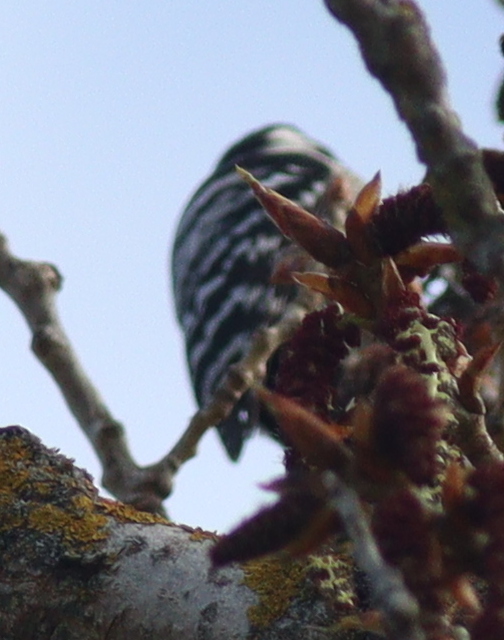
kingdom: Animalia
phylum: Chordata
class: Aves
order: Piciformes
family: Picidae
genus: Dryobates
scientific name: Dryobates minor
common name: Lesser spotted woodpecker
